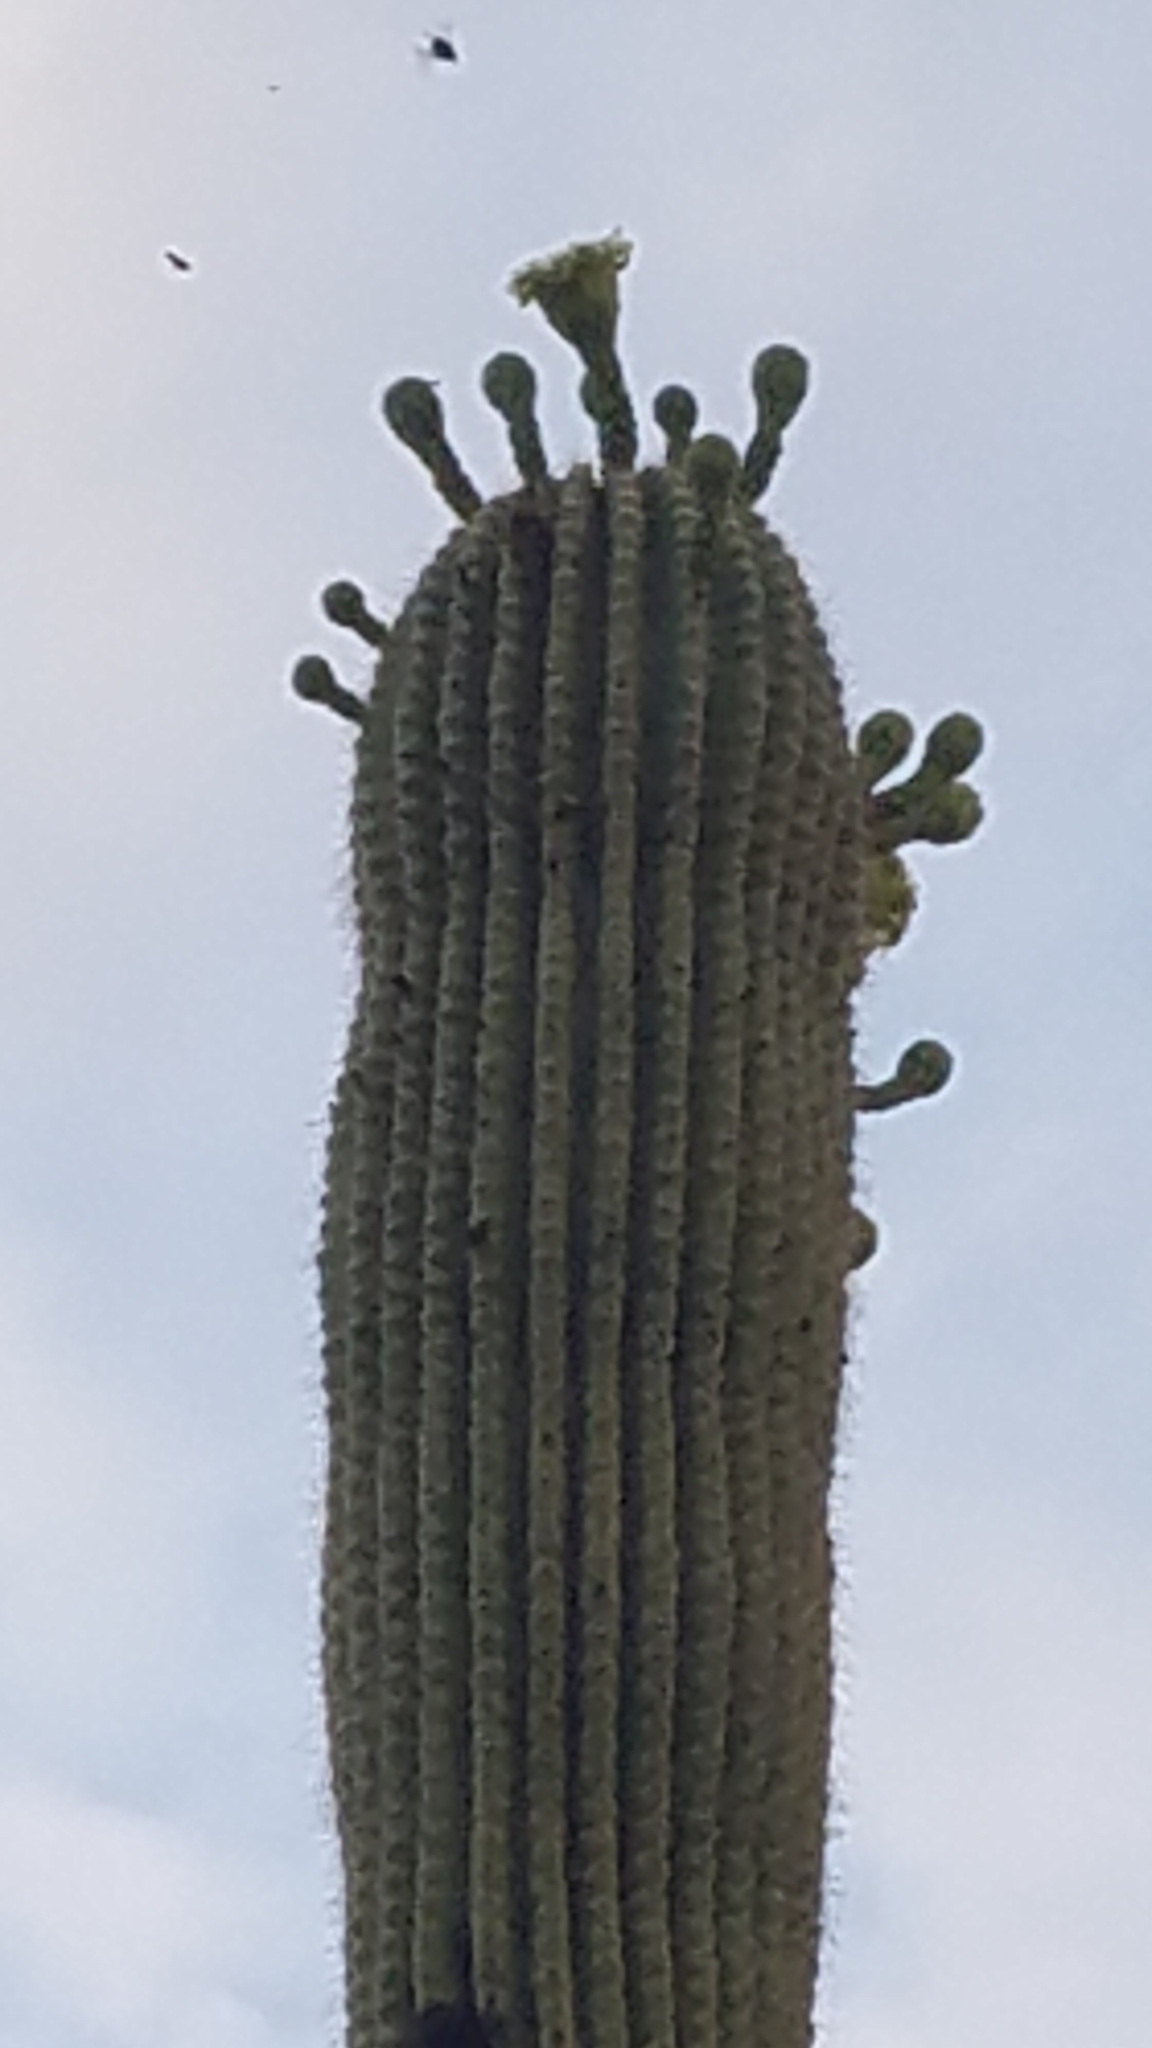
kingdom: Plantae
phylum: Tracheophyta
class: Magnoliopsida
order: Caryophyllales
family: Cactaceae
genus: Carnegiea
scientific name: Carnegiea gigantea
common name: Saguaro
